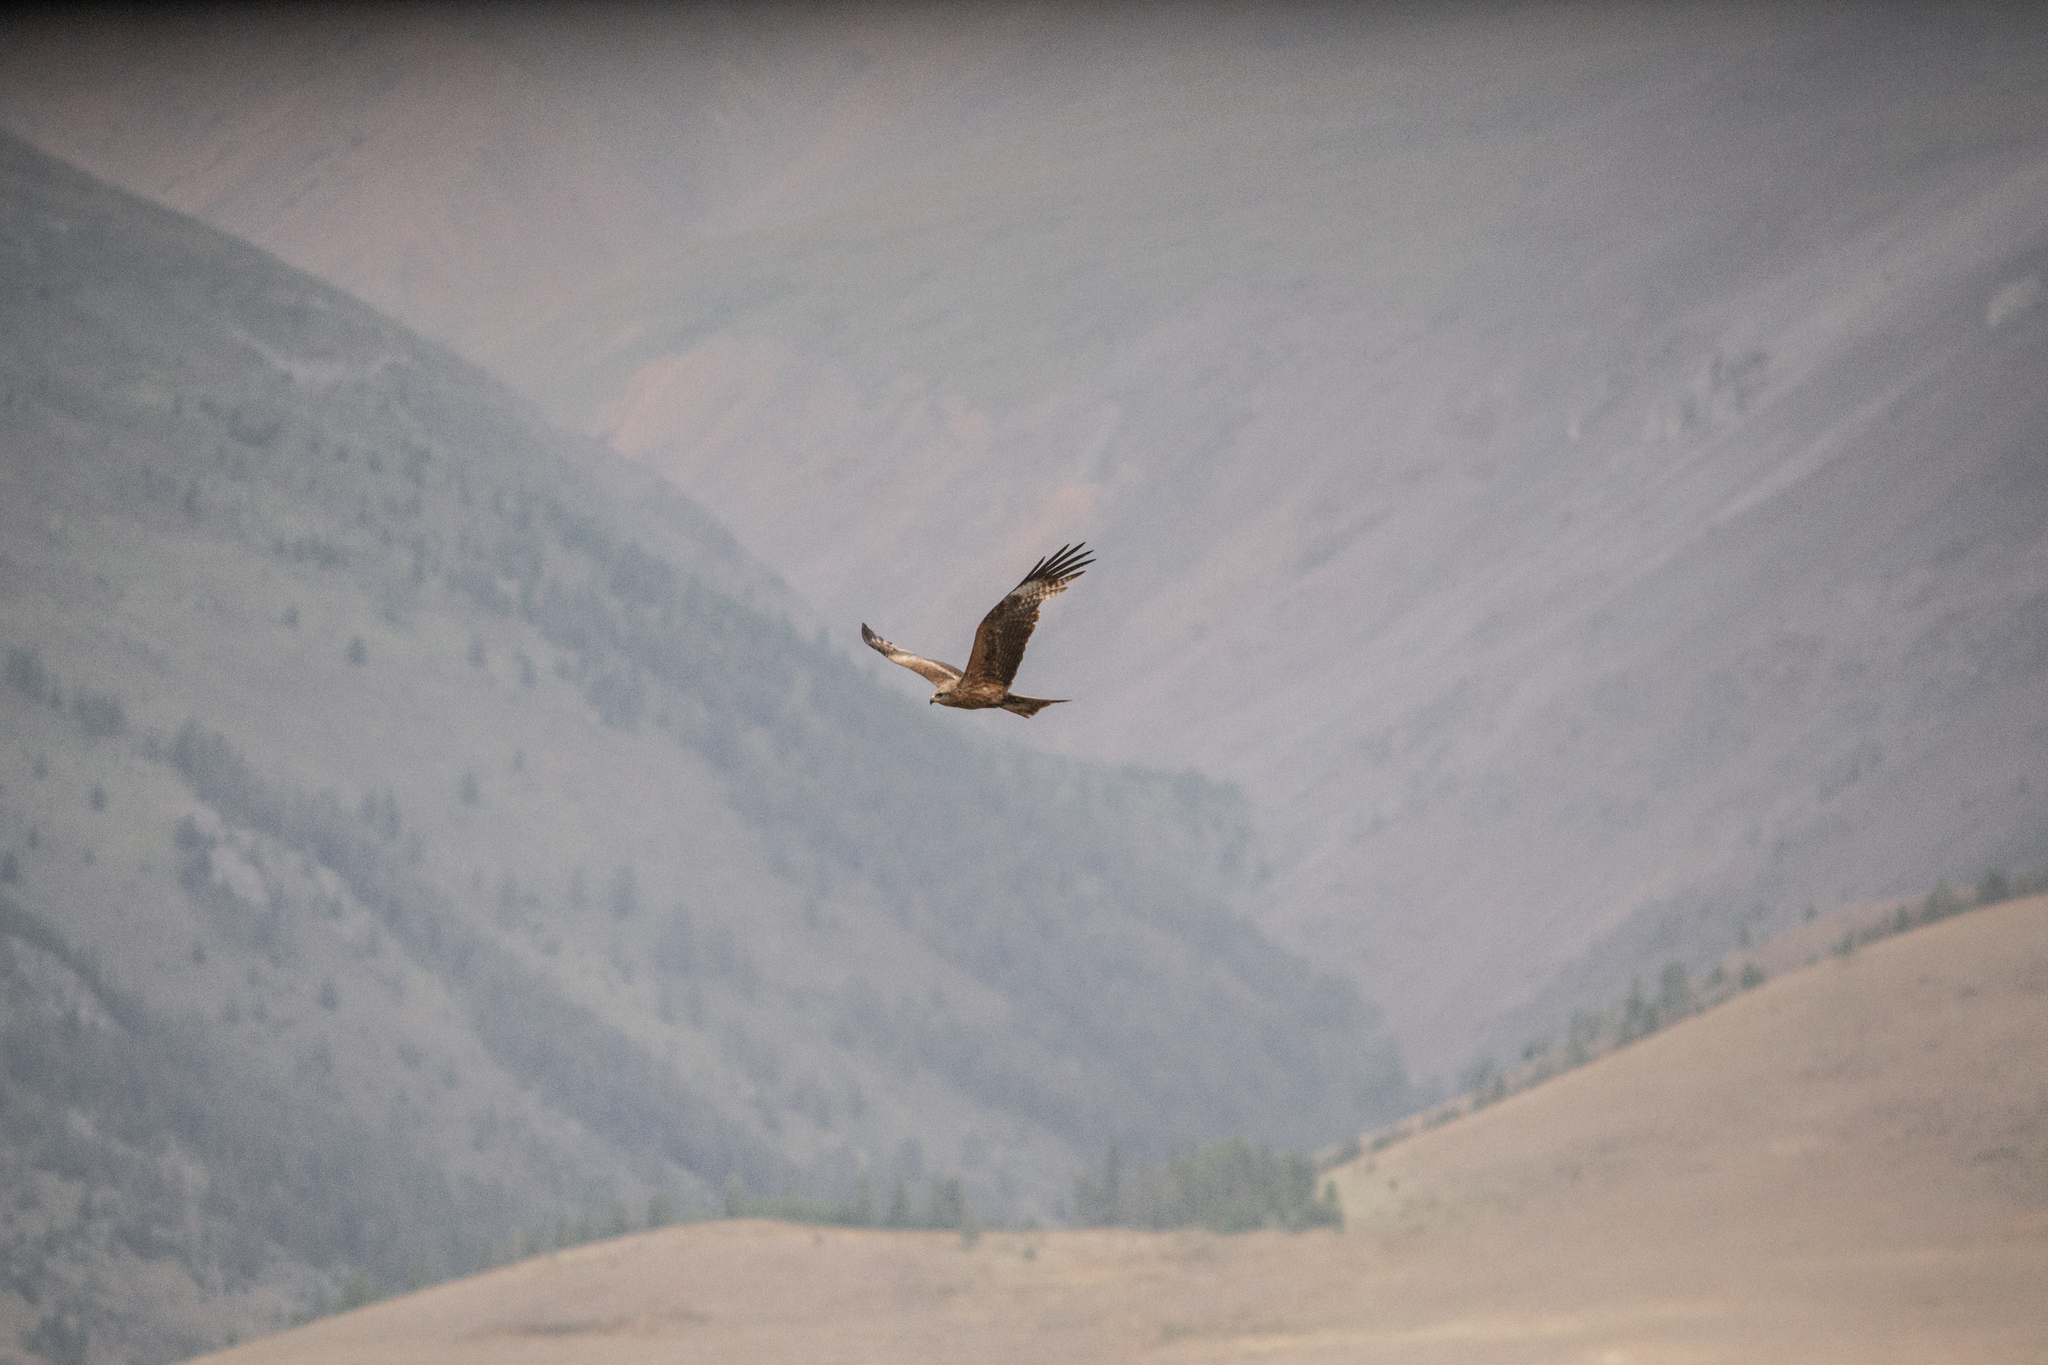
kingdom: Animalia
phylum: Chordata
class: Aves
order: Accipitriformes
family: Accipitridae
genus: Milvus
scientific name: Milvus migrans
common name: Black kite
